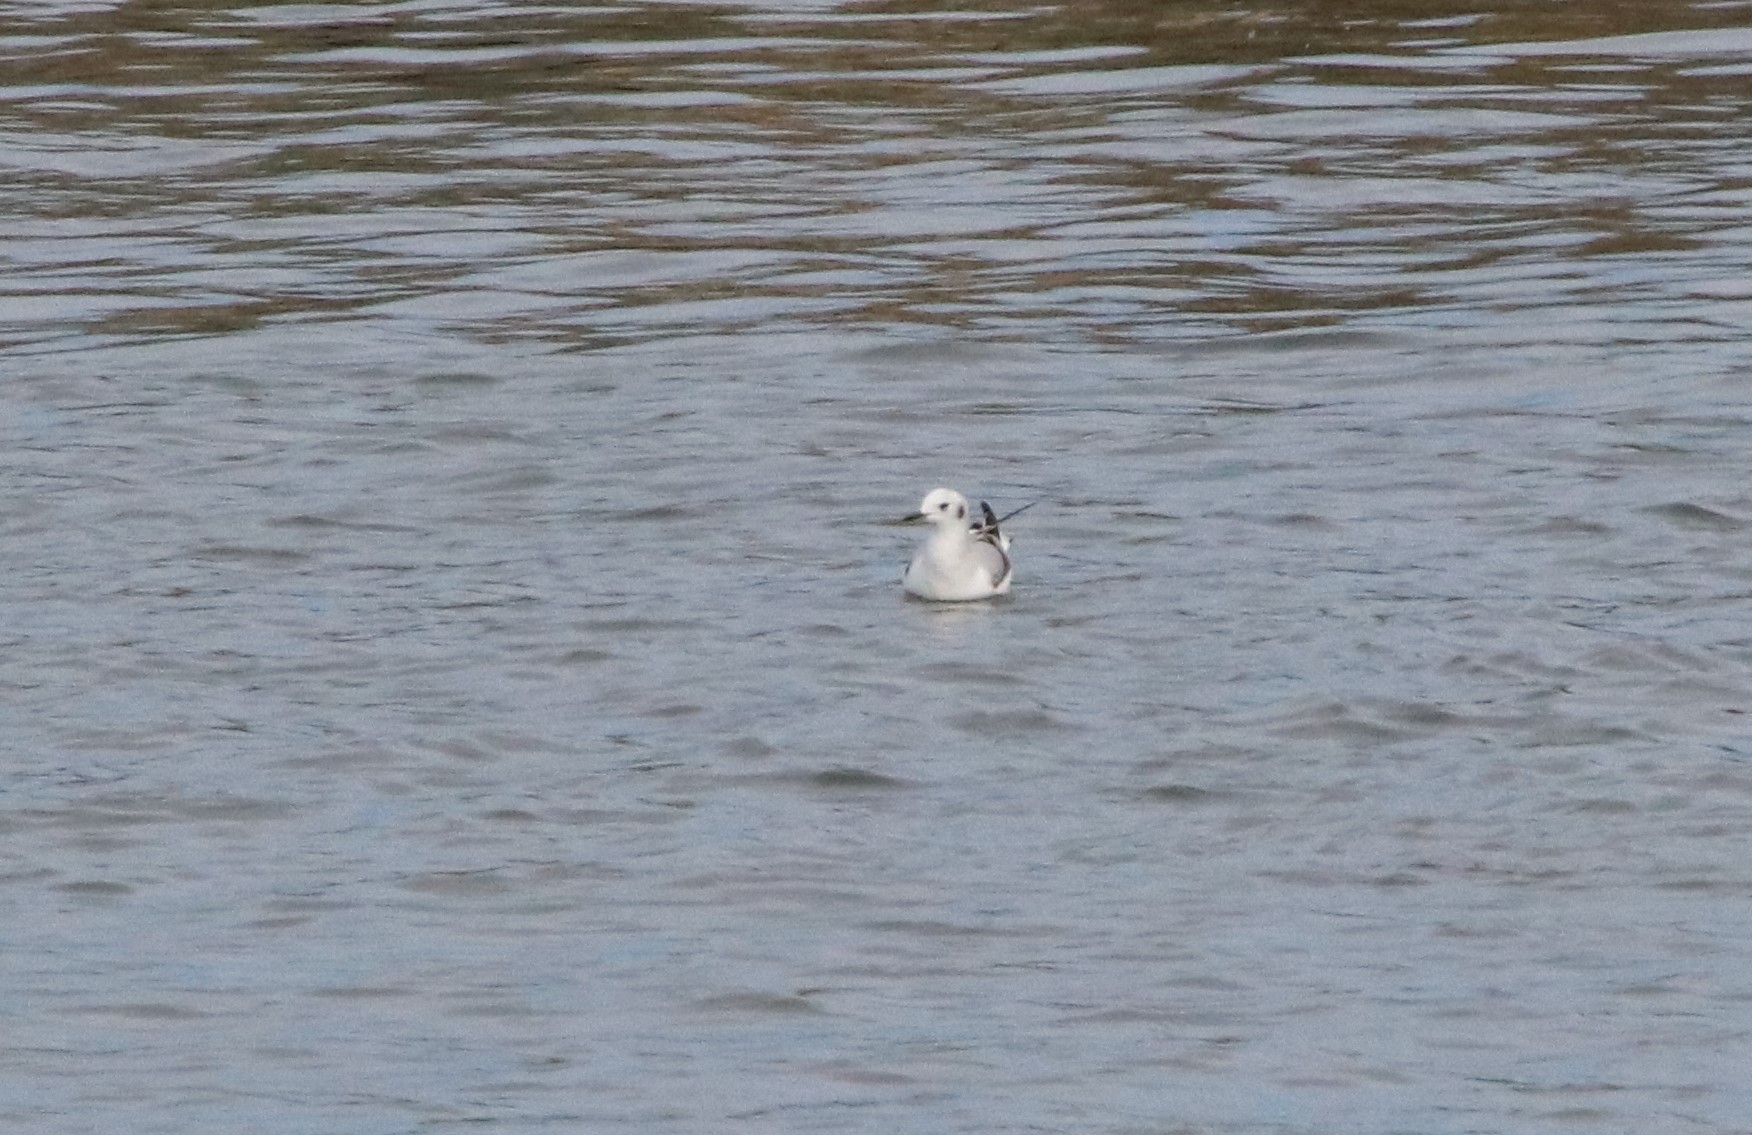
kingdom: Animalia
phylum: Chordata
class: Aves
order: Charadriiformes
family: Laridae
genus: Chroicocephalus
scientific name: Chroicocephalus philadelphia
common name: Bonaparte's gull
